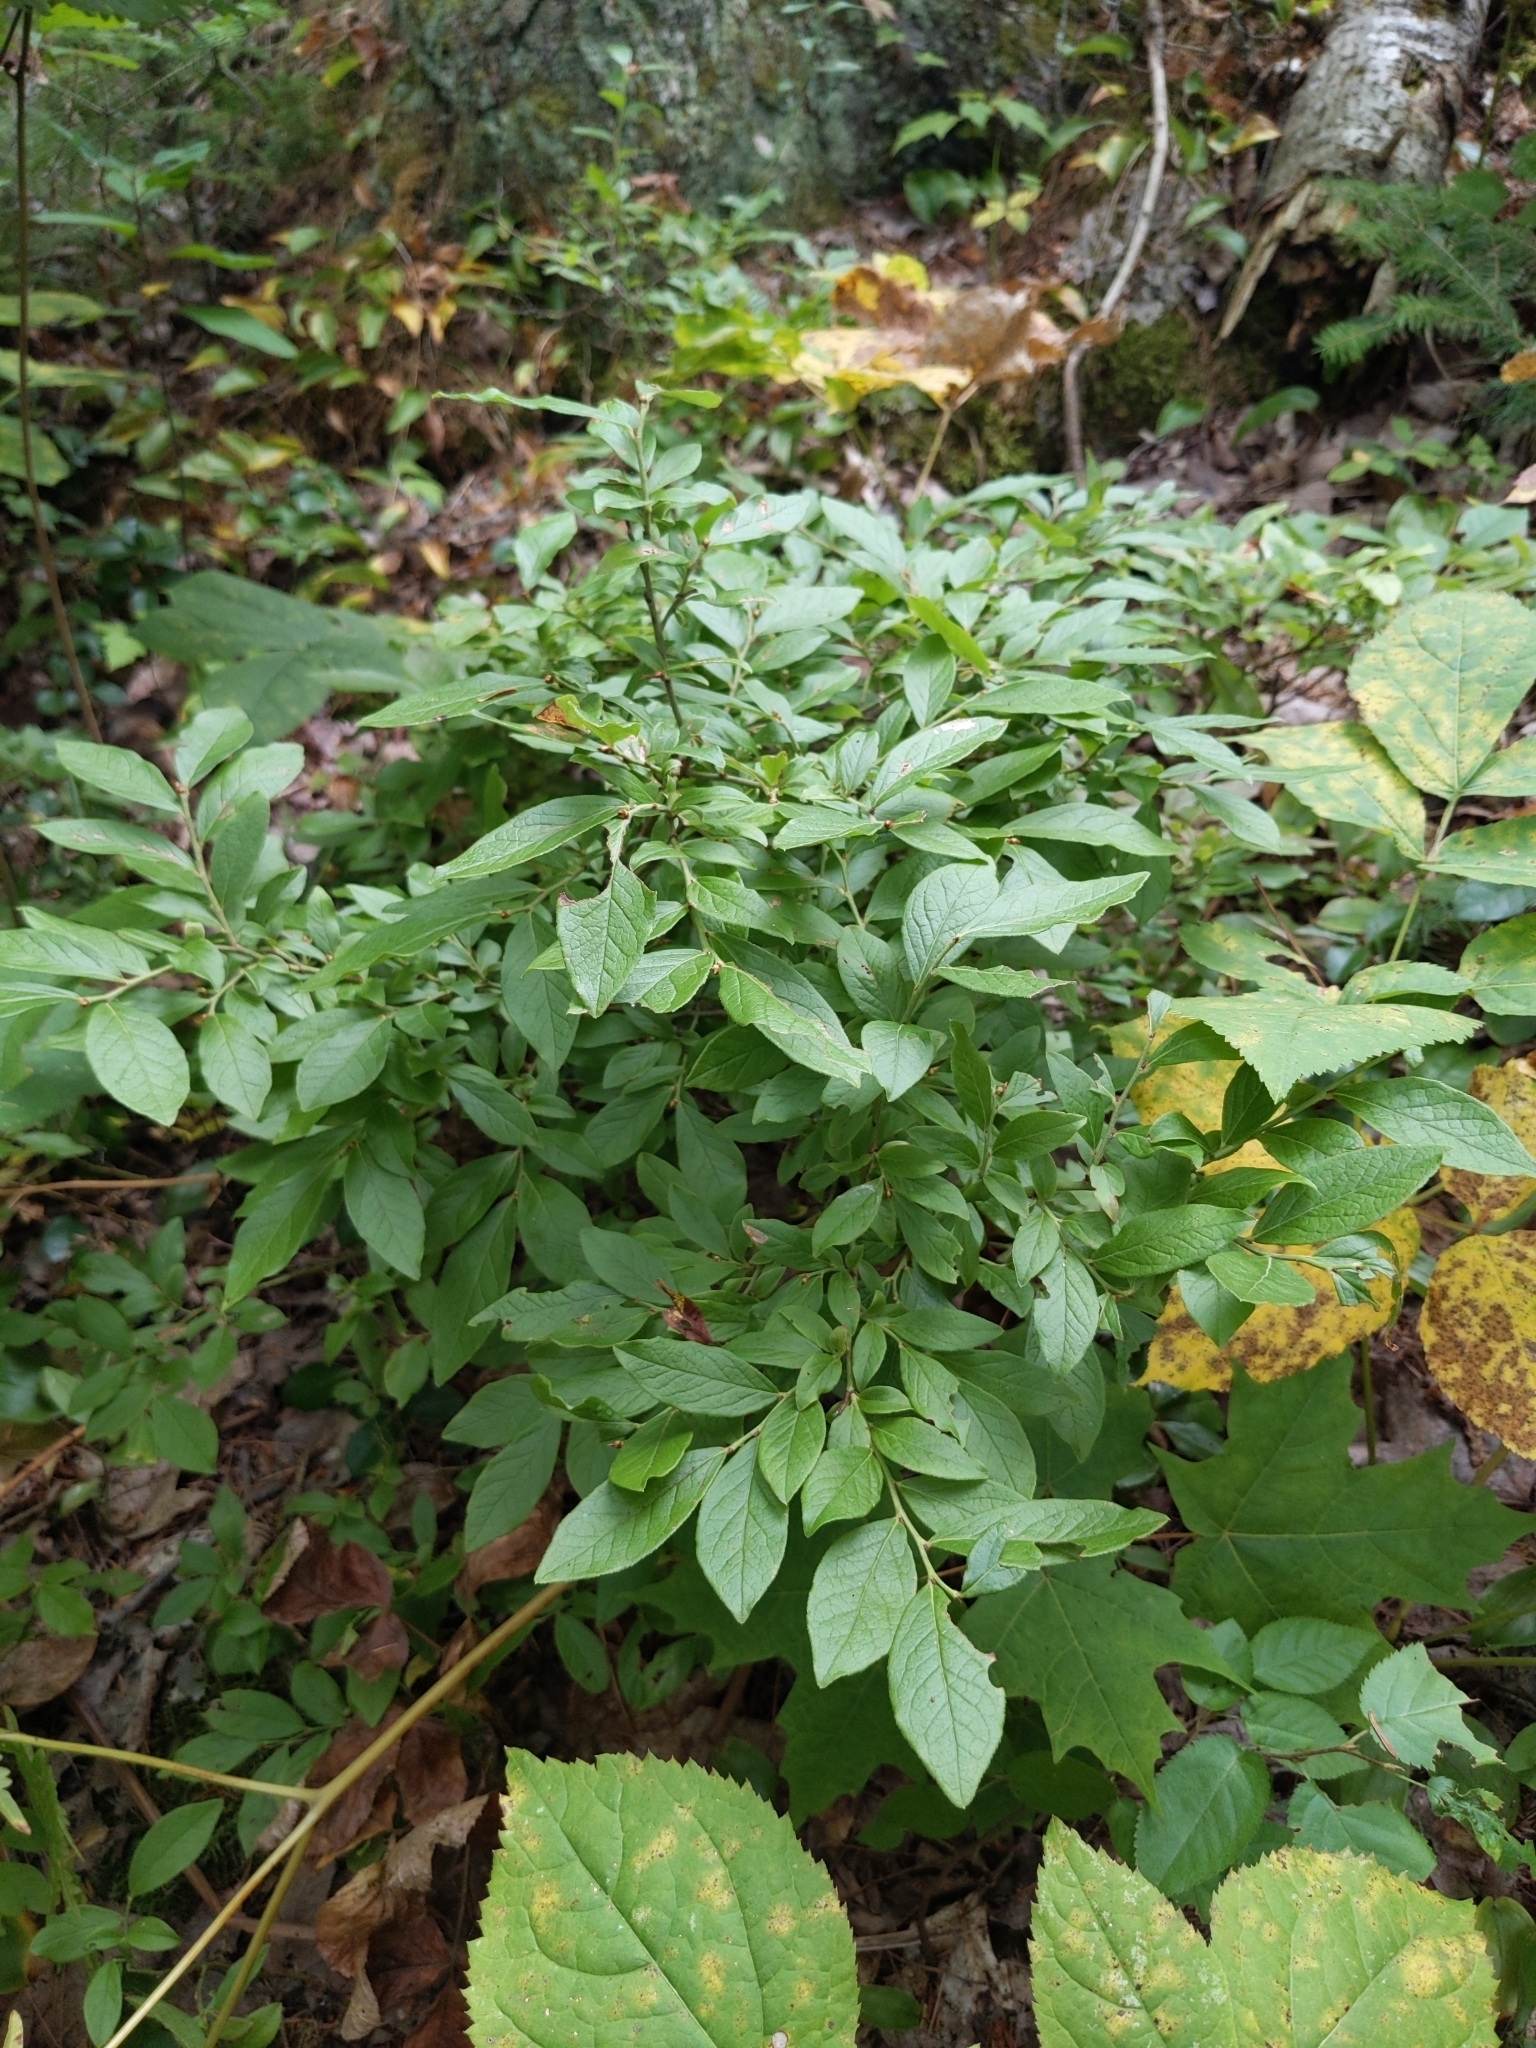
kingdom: Plantae
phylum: Tracheophyta
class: Magnoliopsida
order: Ericales
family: Ericaceae
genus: Vaccinium
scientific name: Vaccinium angustifolium
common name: Early lowbush blueberry
